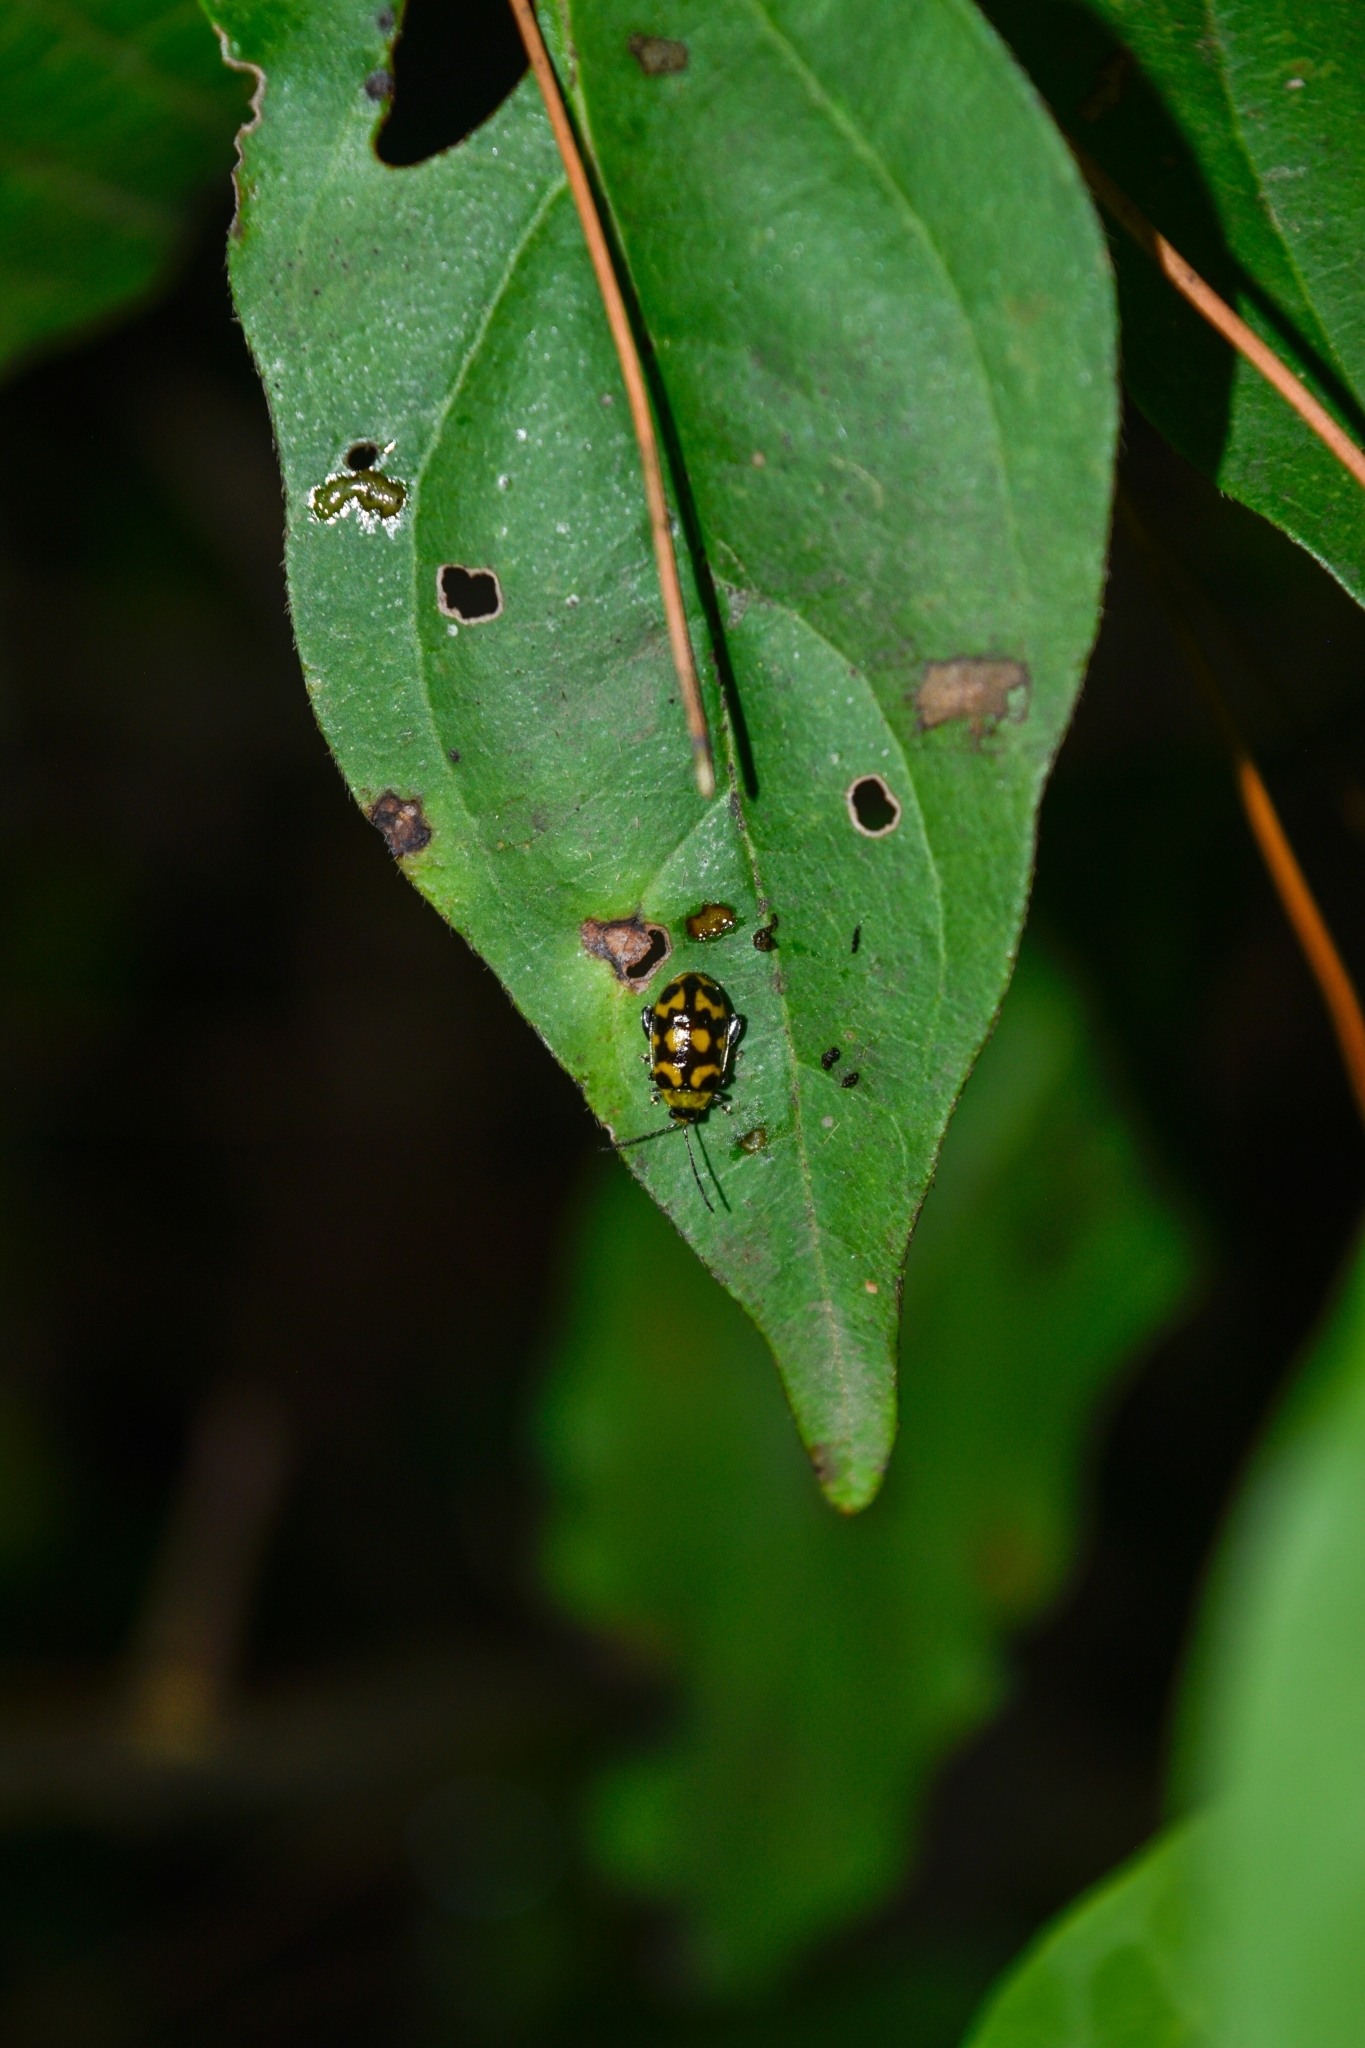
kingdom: Animalia
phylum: Arthropoda
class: Insecta
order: Coleoptera
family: Chrysomelidae
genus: Capraita
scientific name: Capraita
